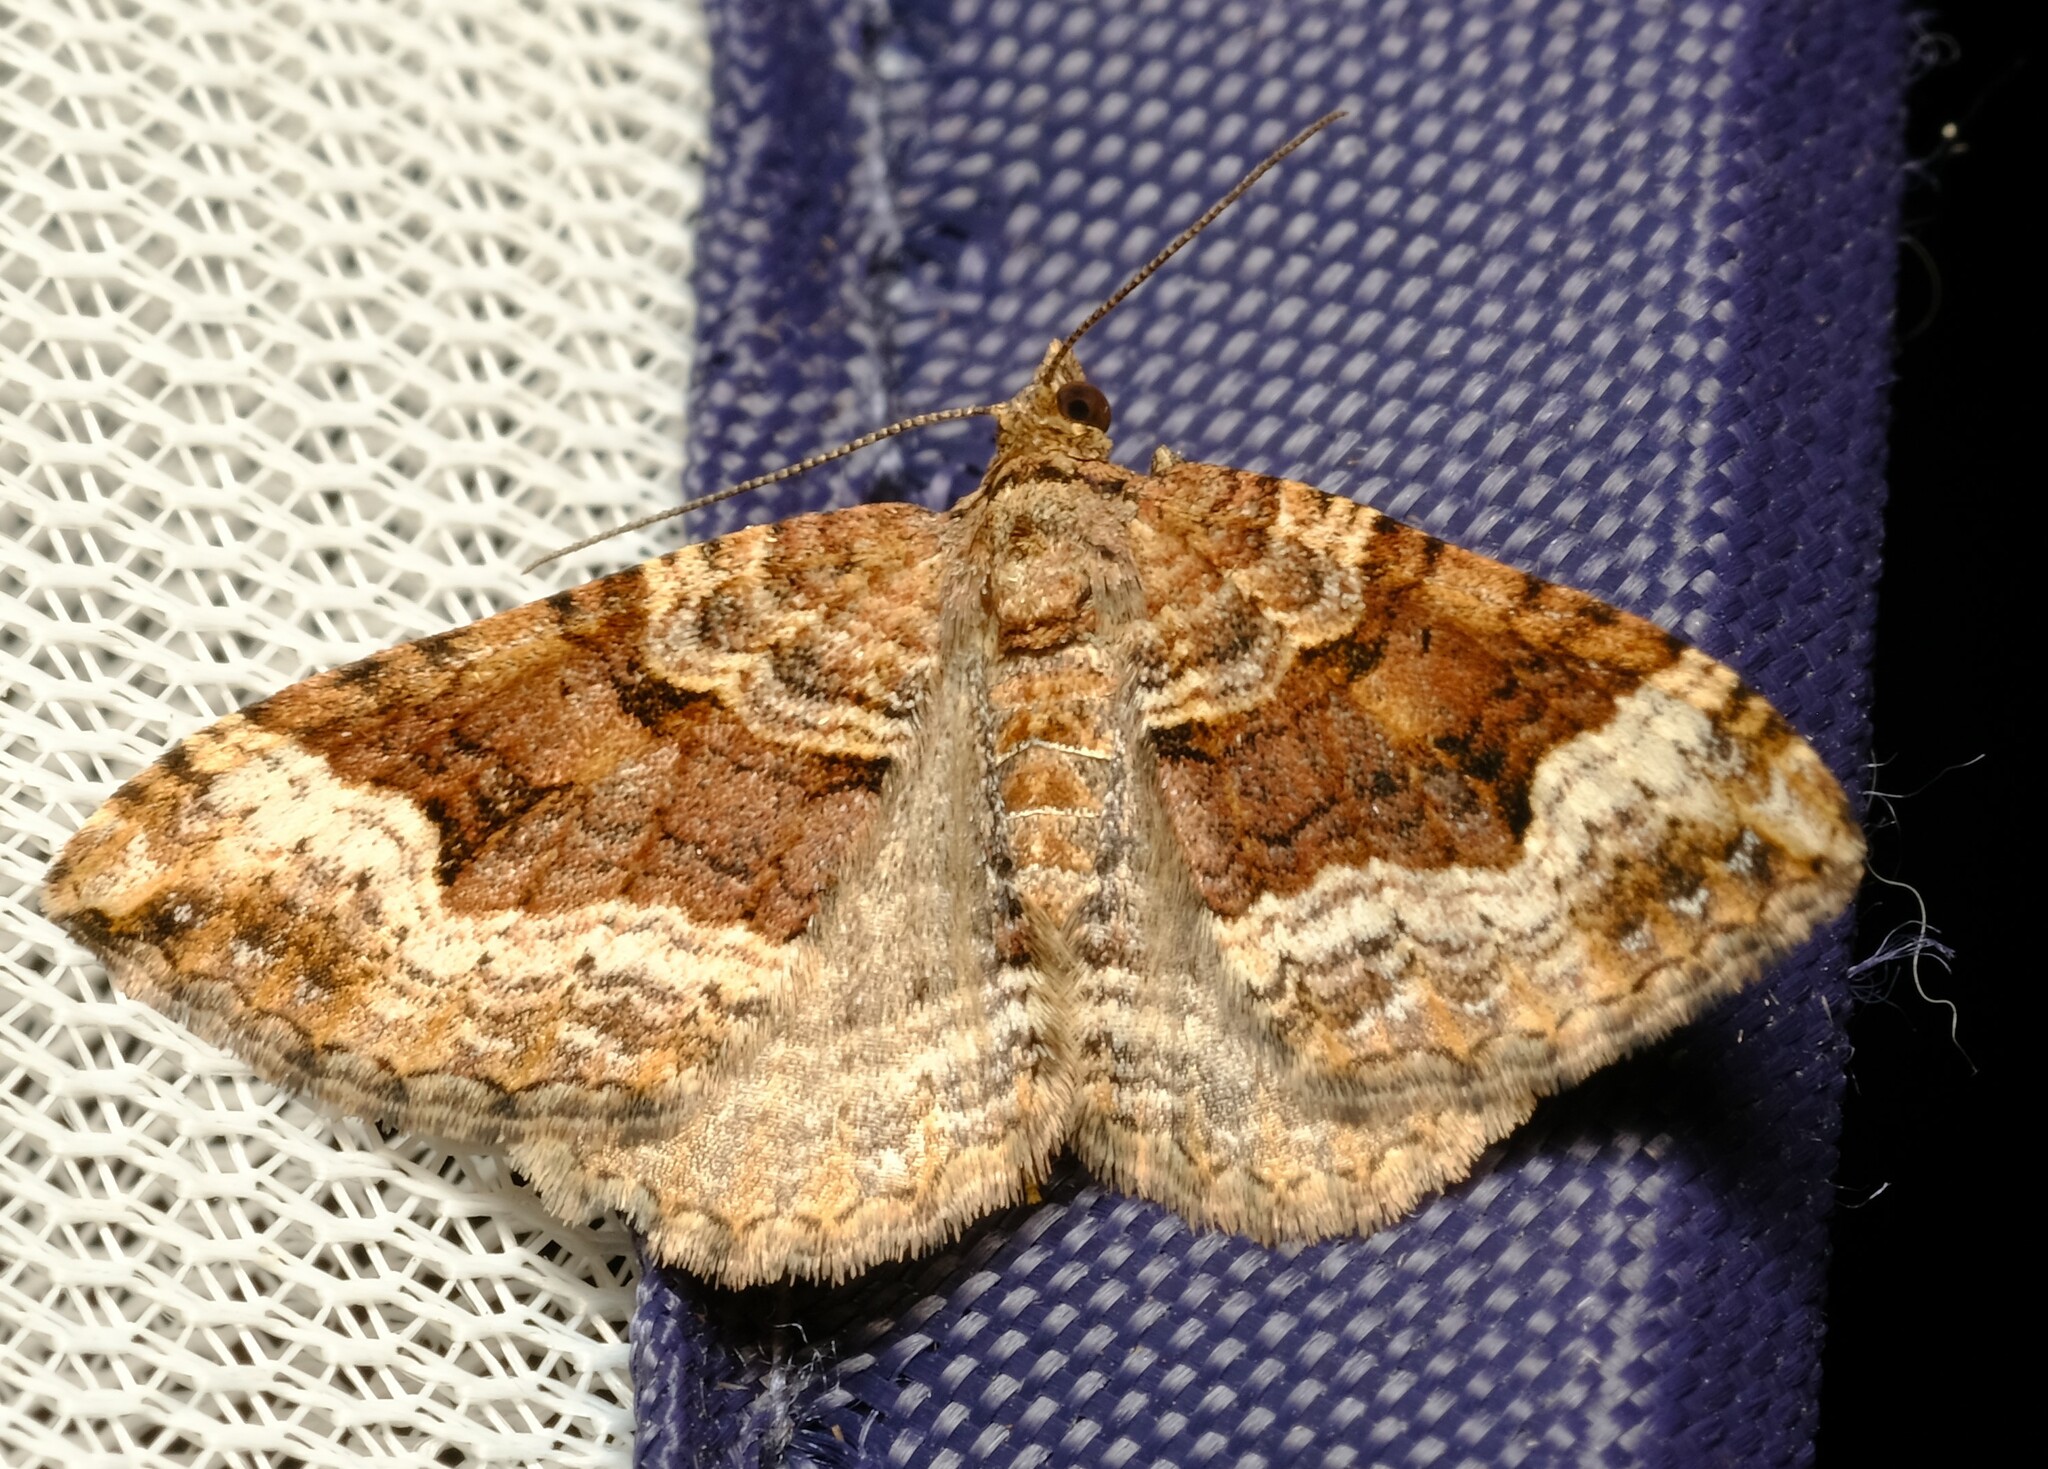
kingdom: Animalia
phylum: Arthropoda
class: Insecta
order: Lepidoptera
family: Geometridae
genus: Epyaxa
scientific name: Epyaxa subidaria
